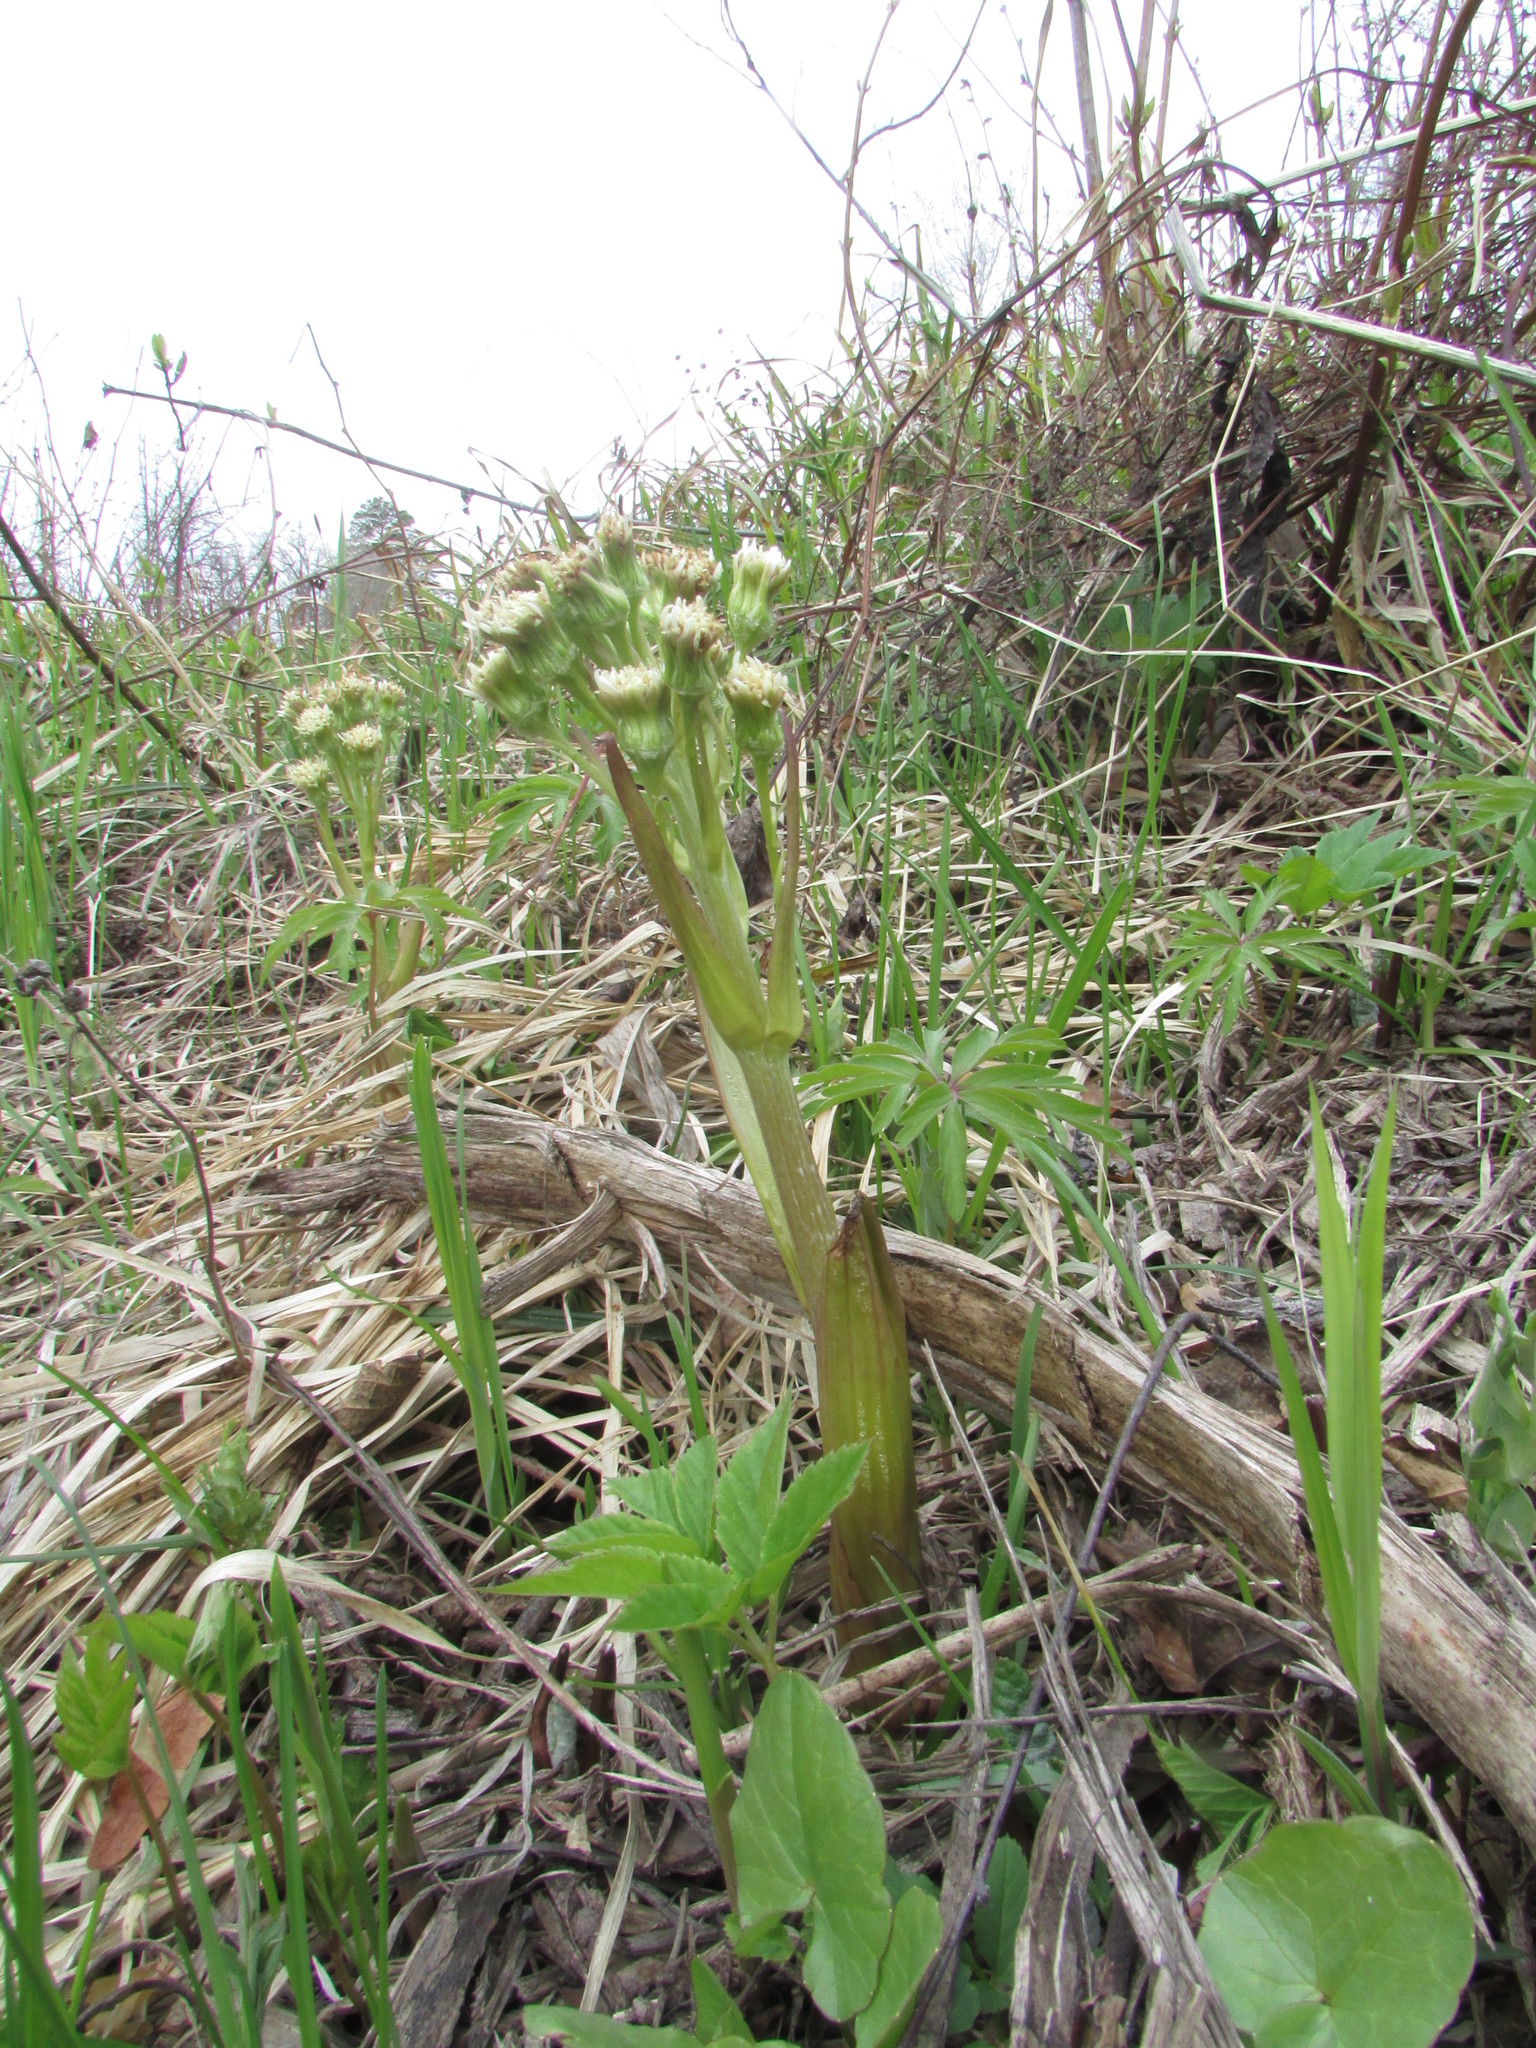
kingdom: Plantae
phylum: Tracheophyta
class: Magnoliopsida
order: Asterales
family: Asteraceae
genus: Petasites
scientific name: Petasites spurius
